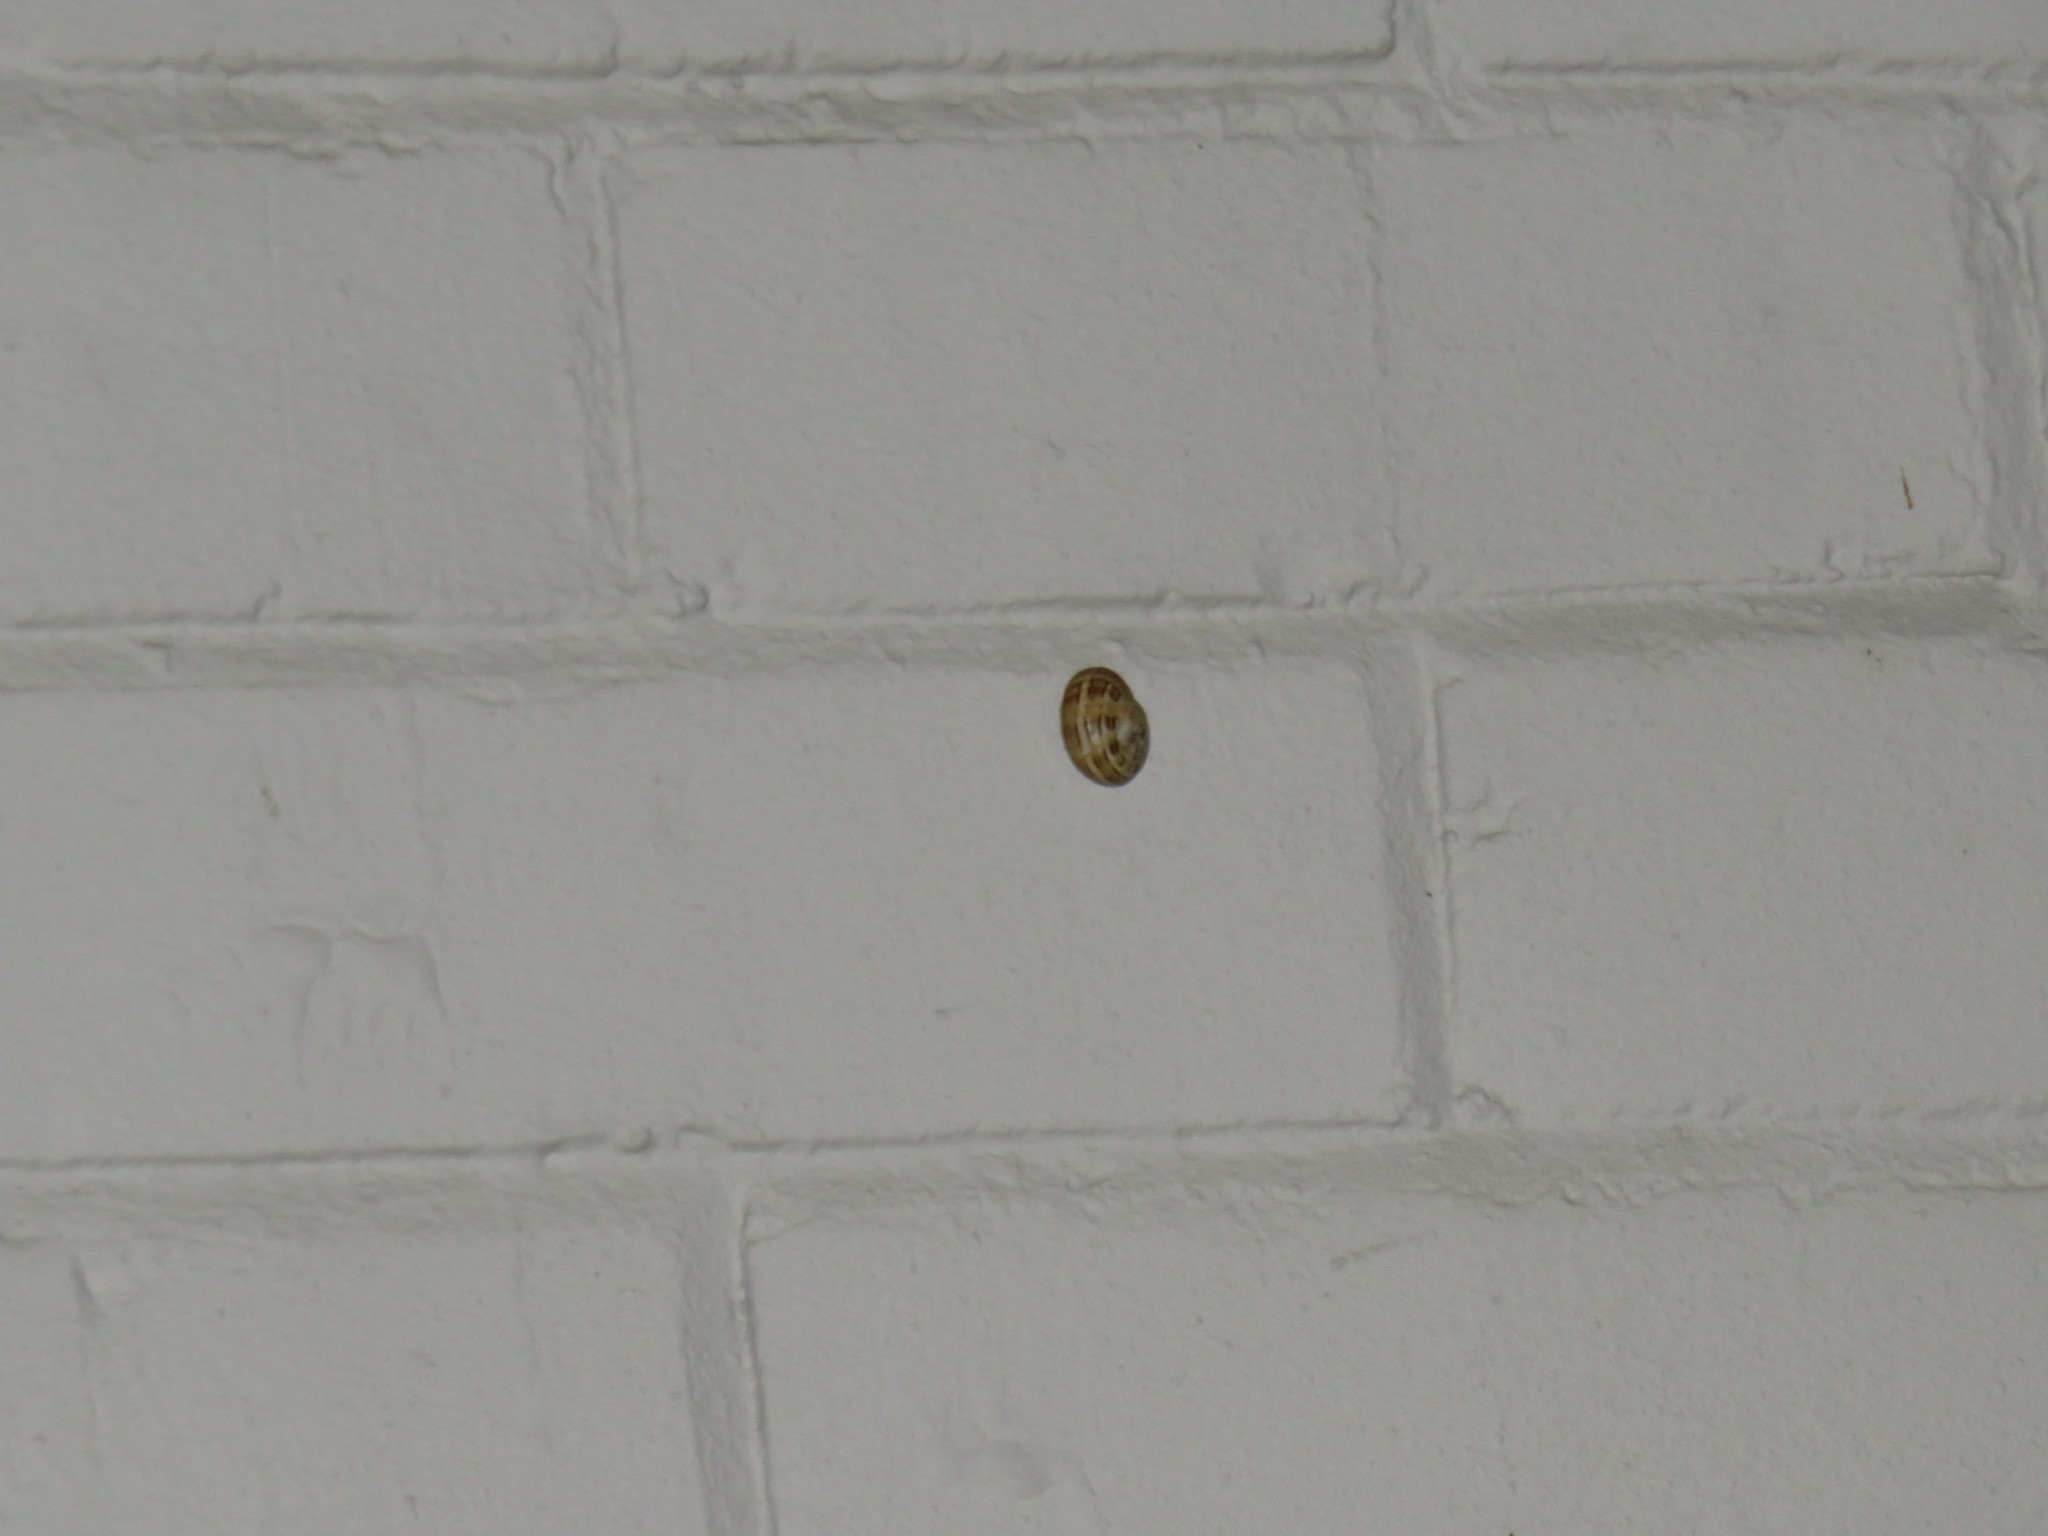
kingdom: Animalia
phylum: Mollusca
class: Gastropoda
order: Stylommatophora
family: Helicidae
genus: Theba
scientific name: Theba pisana
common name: White snail
